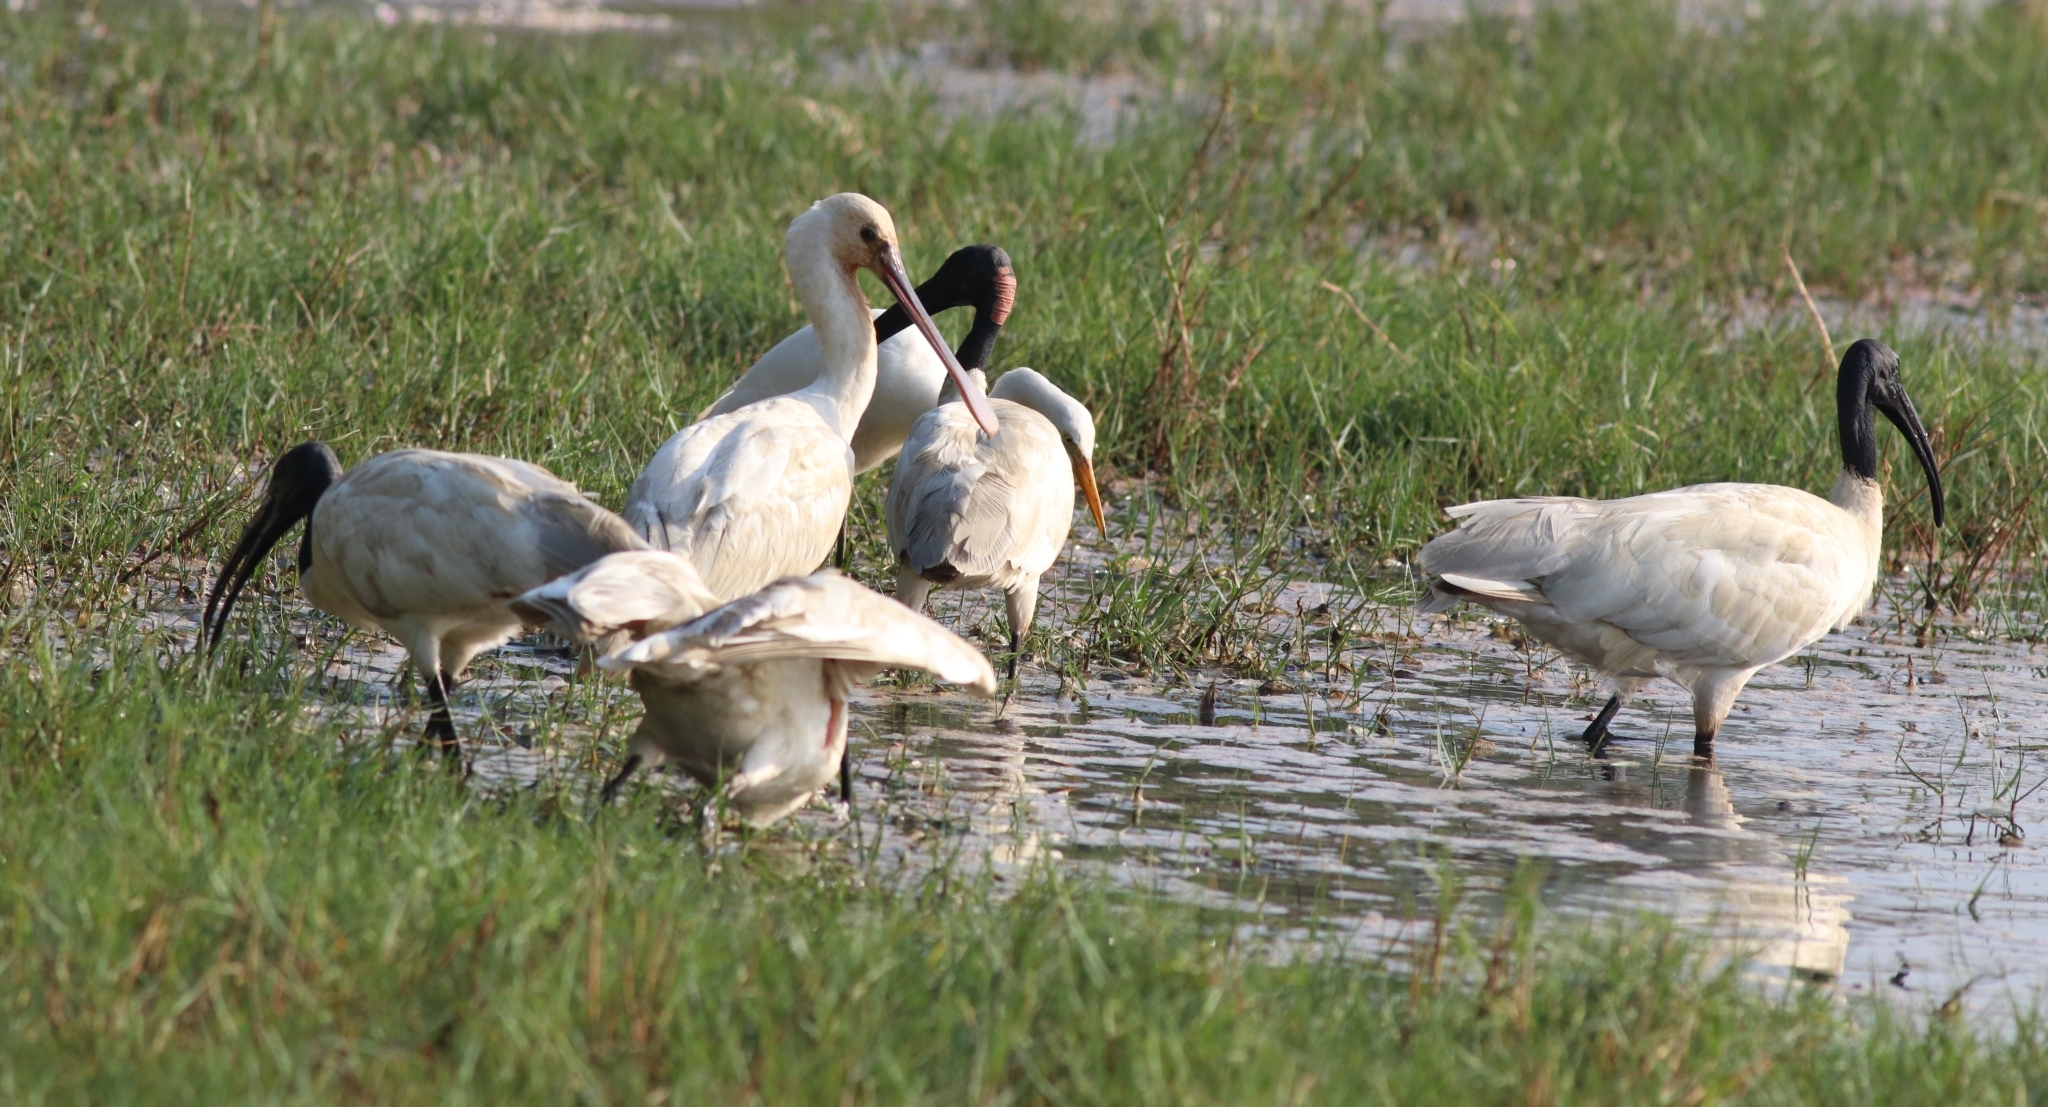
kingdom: Animalia
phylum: Chordata
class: Aves
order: Pelecaniformes
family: Threskiornithidae
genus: Threskiornis
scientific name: Threskiornis melanocephalus
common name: Black-headed ibis
